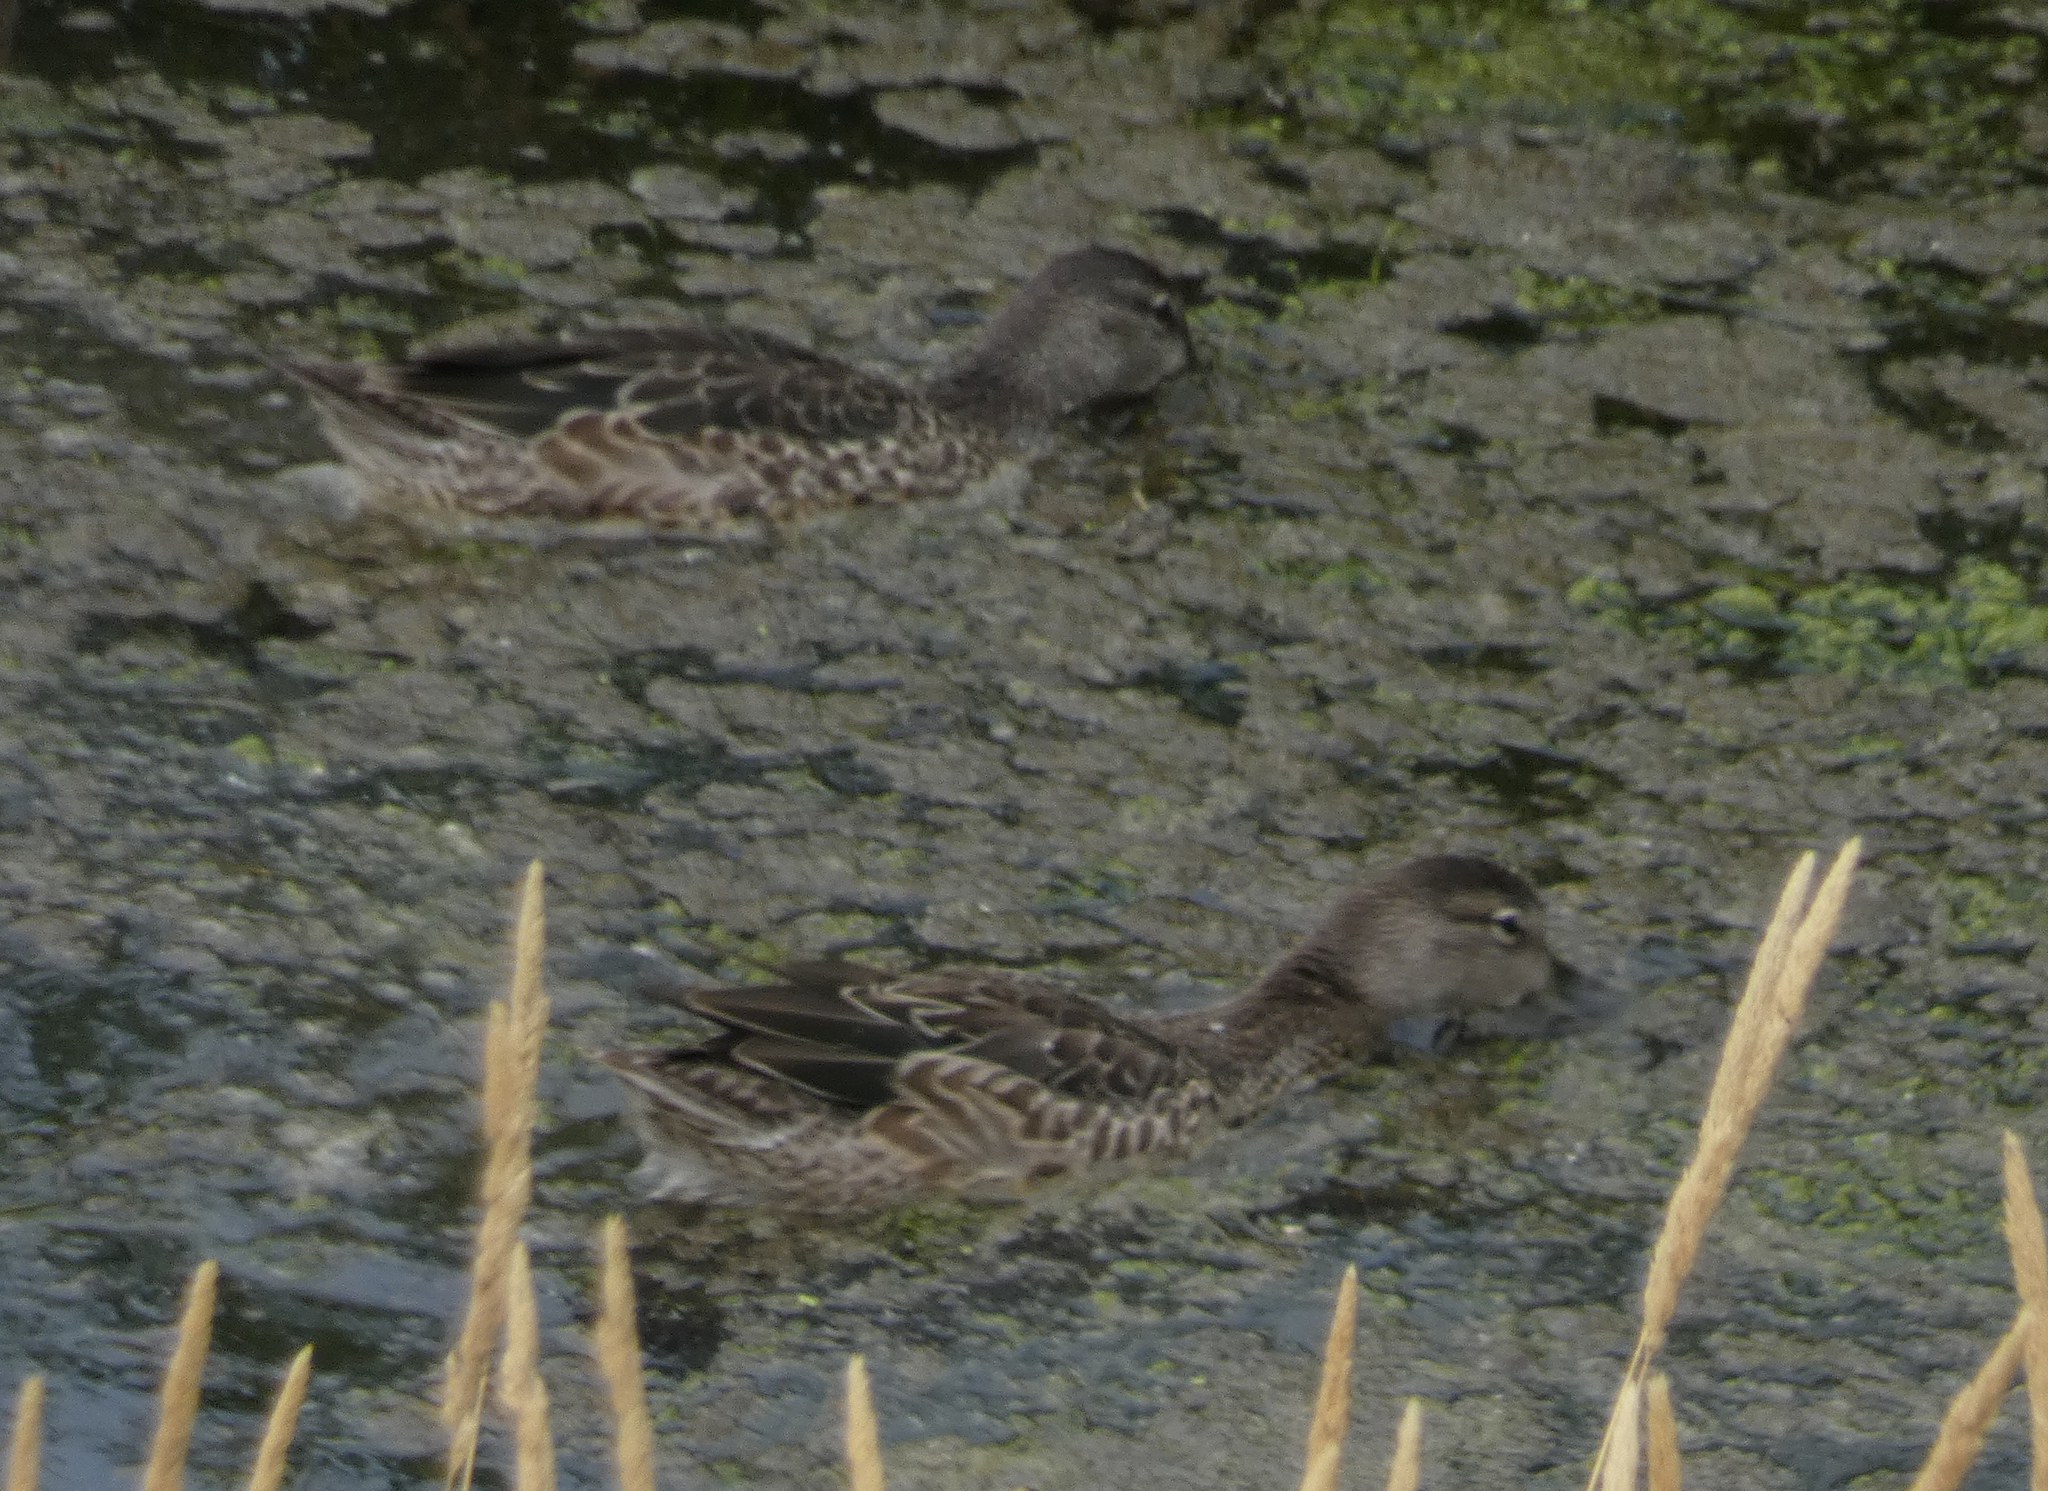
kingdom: Animalia
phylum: Chordata
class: Aves
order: Anseriformes
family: Anatidae
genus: Spatula
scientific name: Spatula discors
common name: Blue-winged teal
